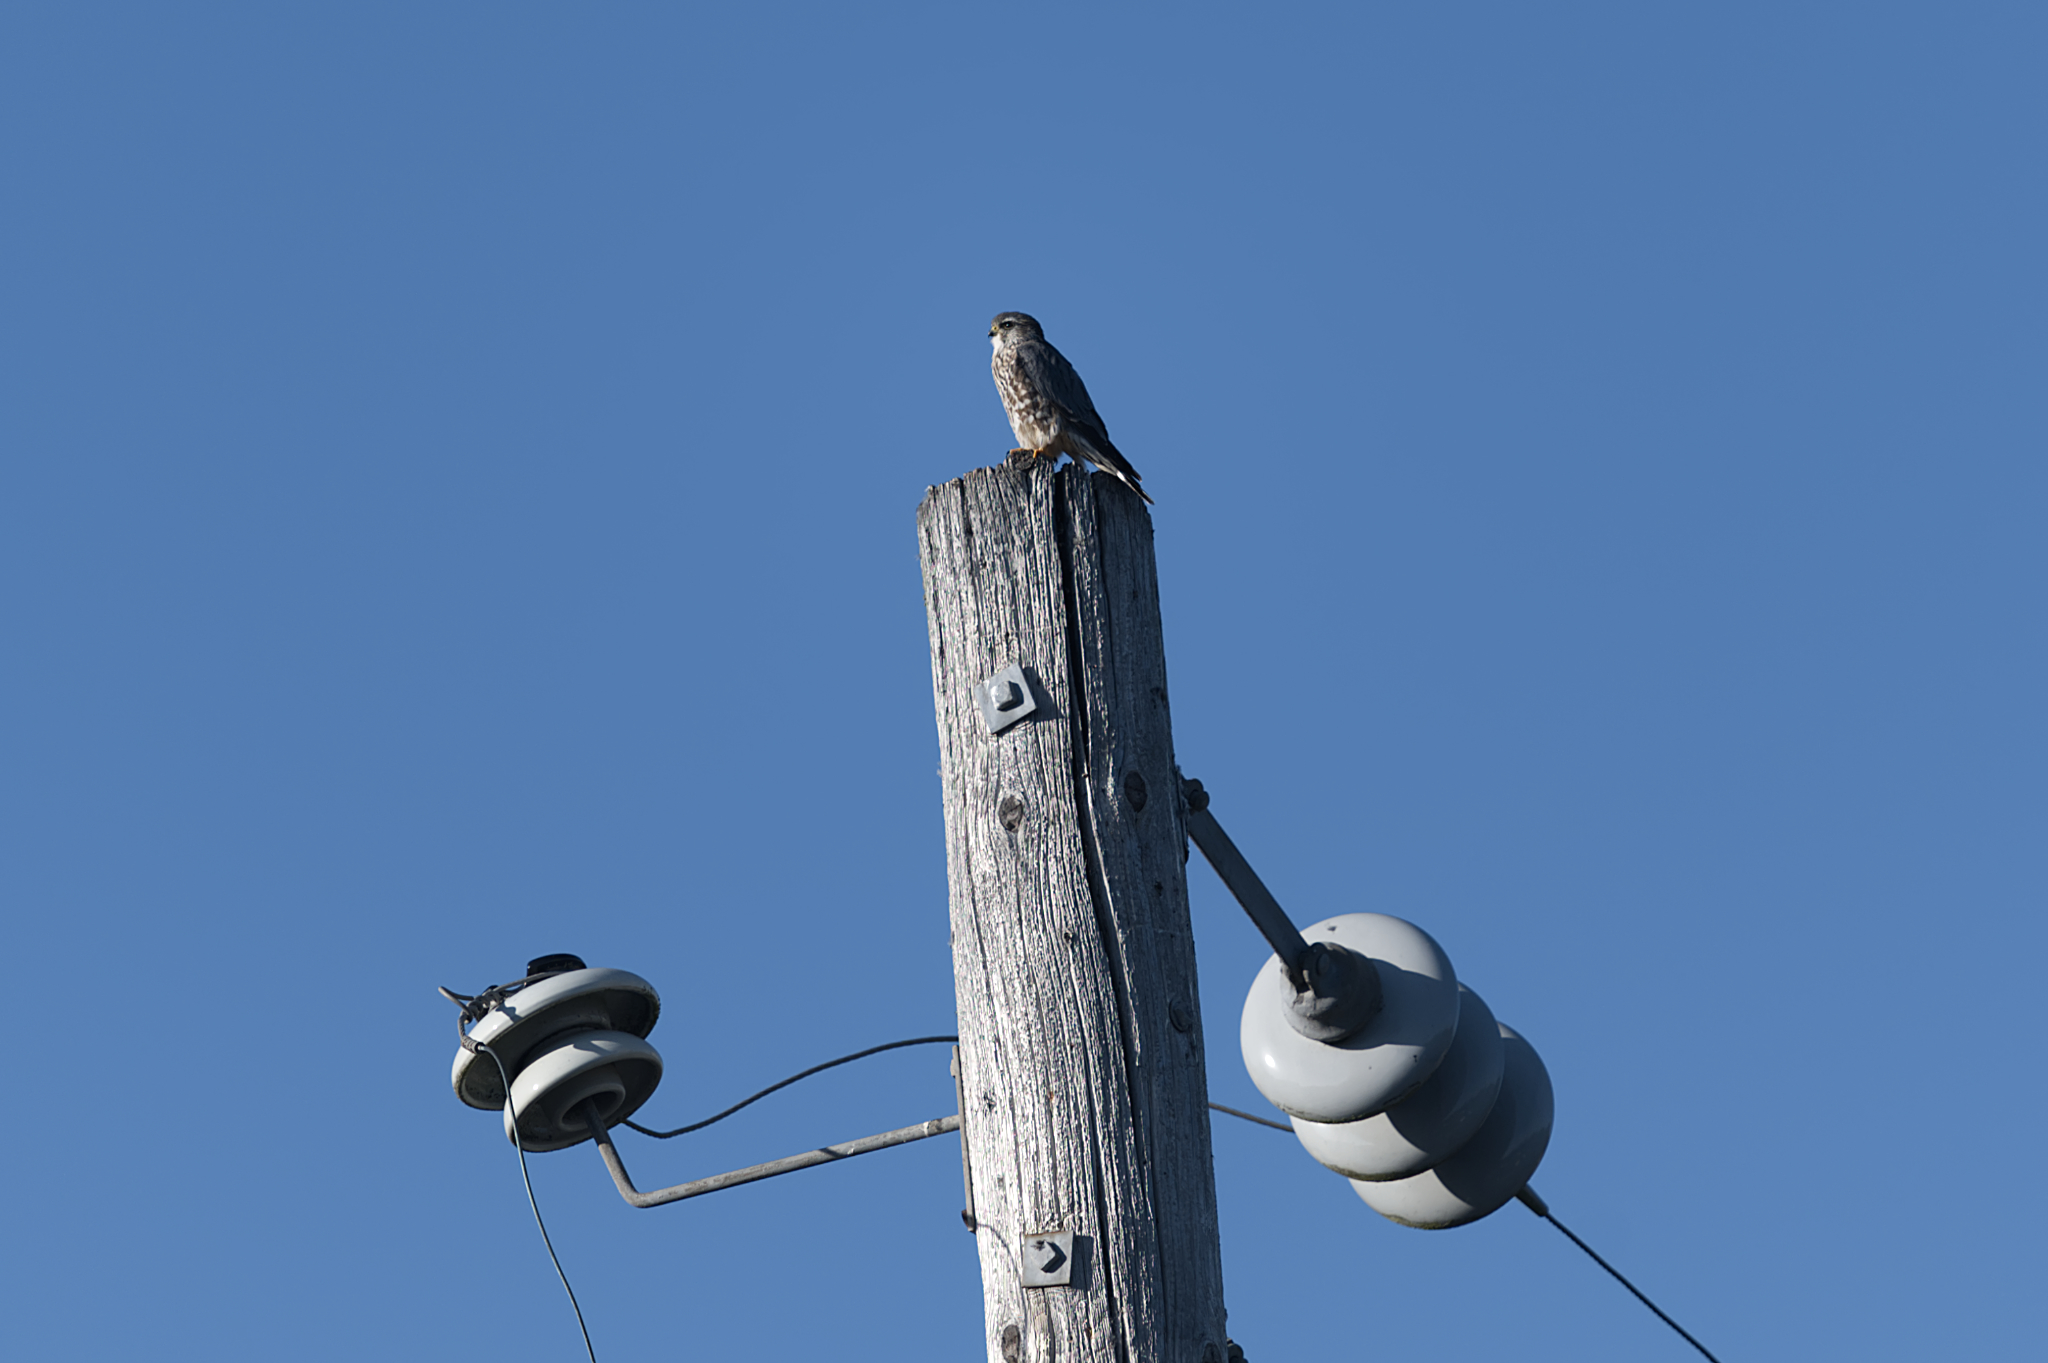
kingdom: Animalia
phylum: Chordata
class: Aves
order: Falconiformes
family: Falconidae
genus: Falco
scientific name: Falco columbarius
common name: Merlin
